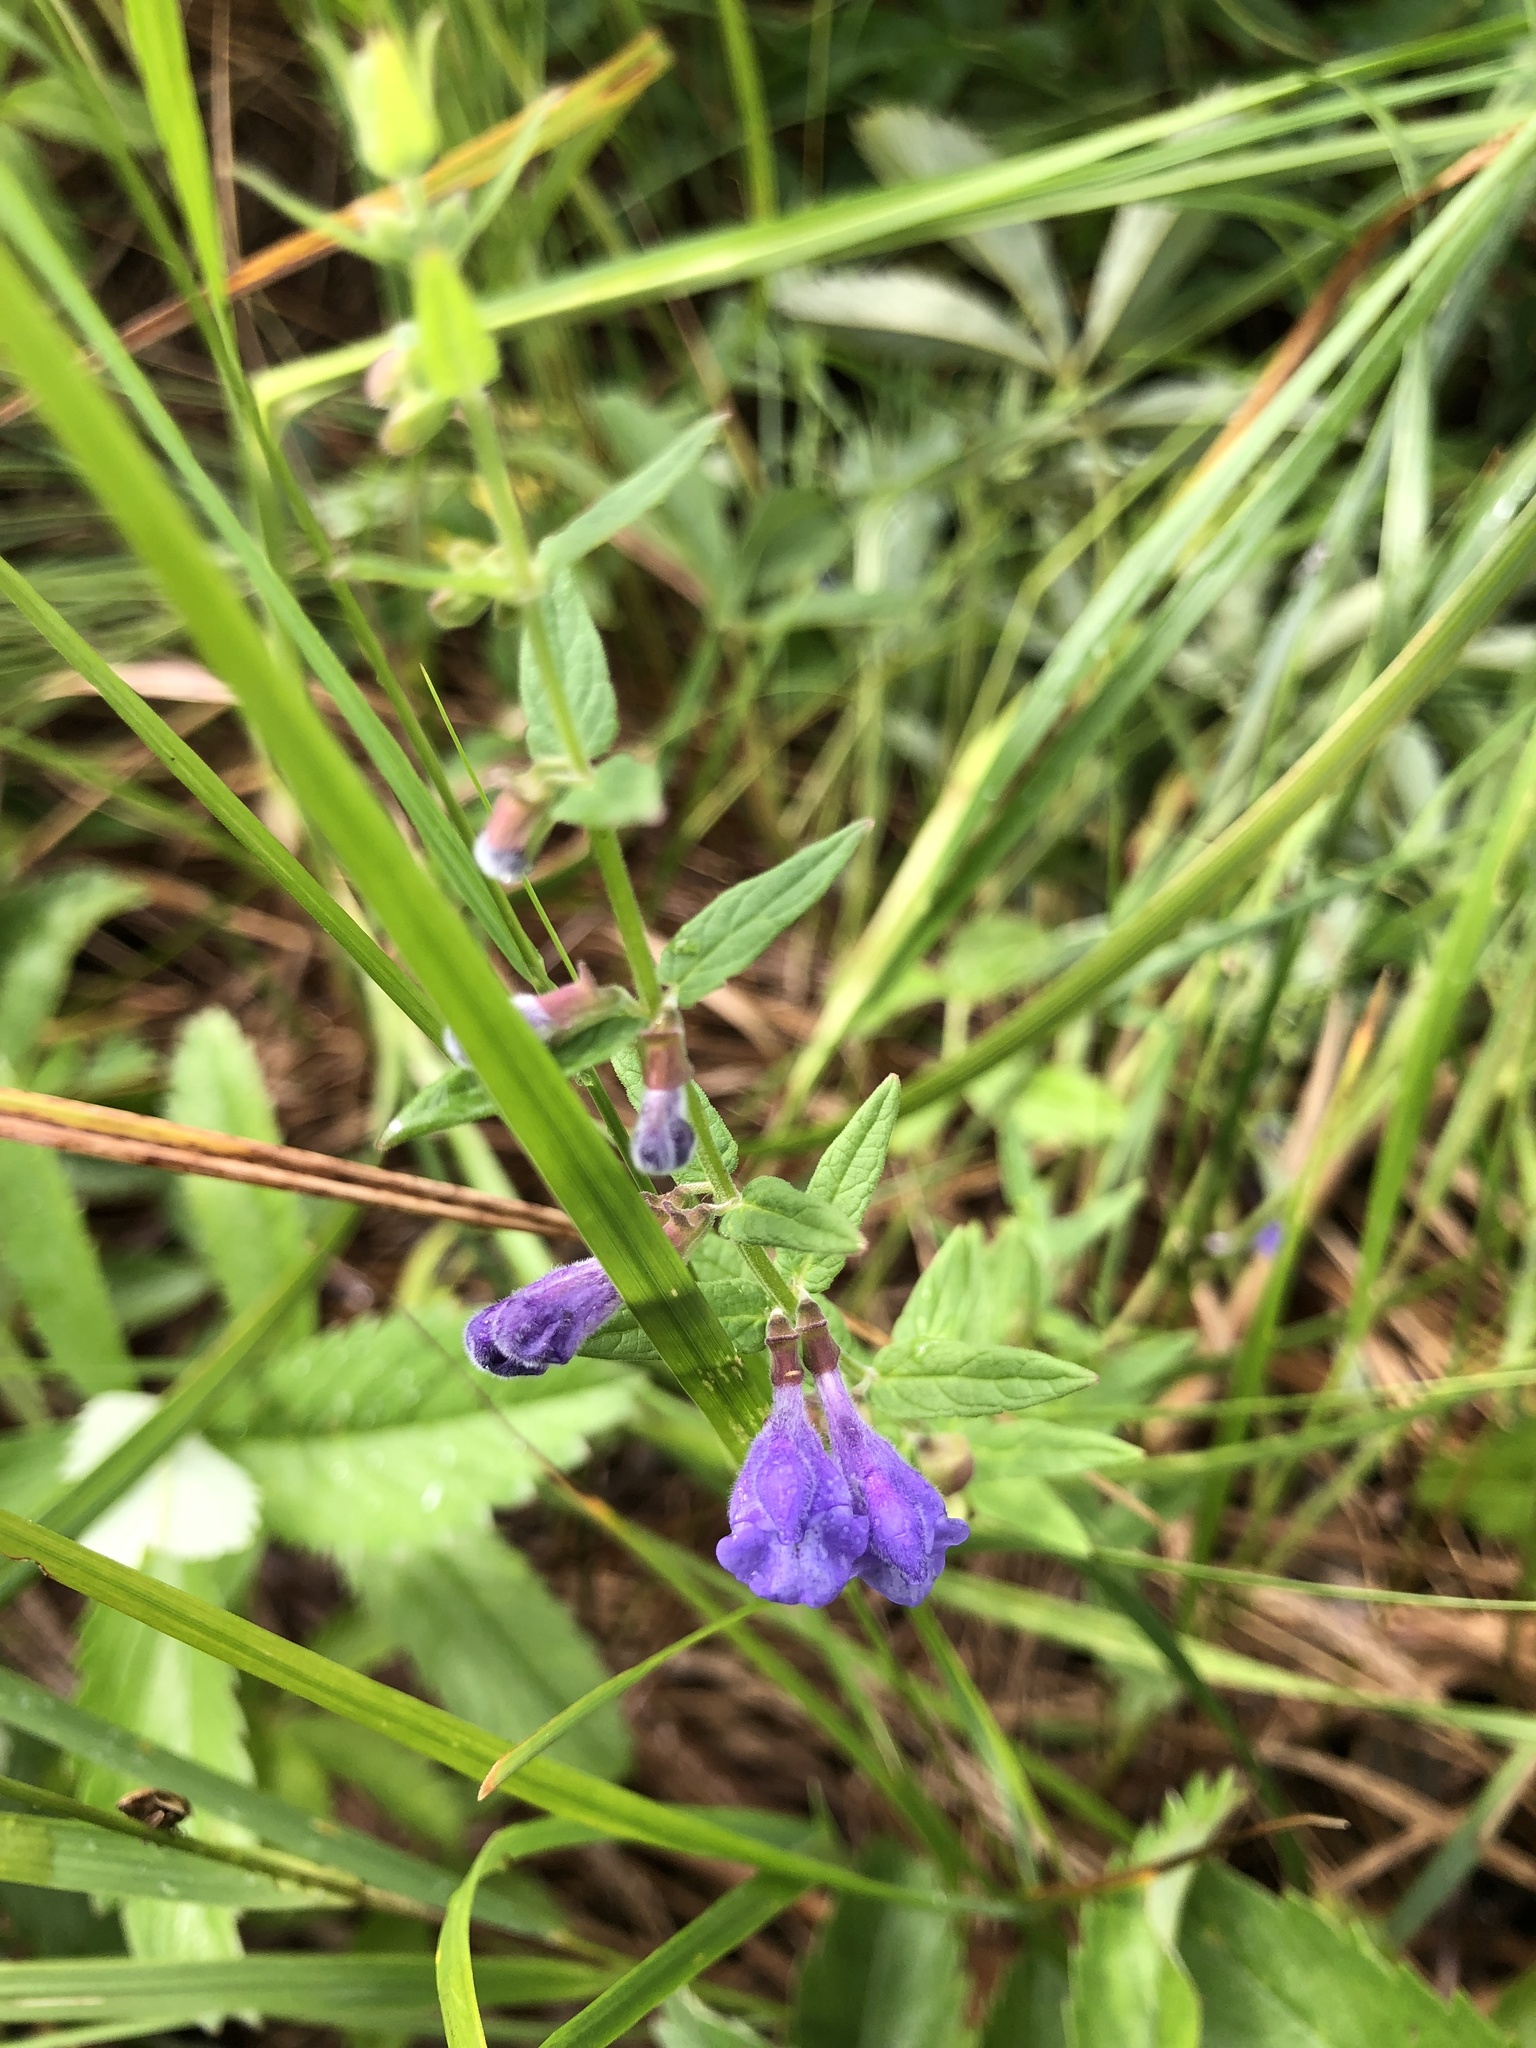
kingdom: Plantae
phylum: Tracheophyta
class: Magnoliopsida
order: Lamiales
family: Lamiaceae
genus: Scutellaria
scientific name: Scutellaria galericulata
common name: Skullcap
